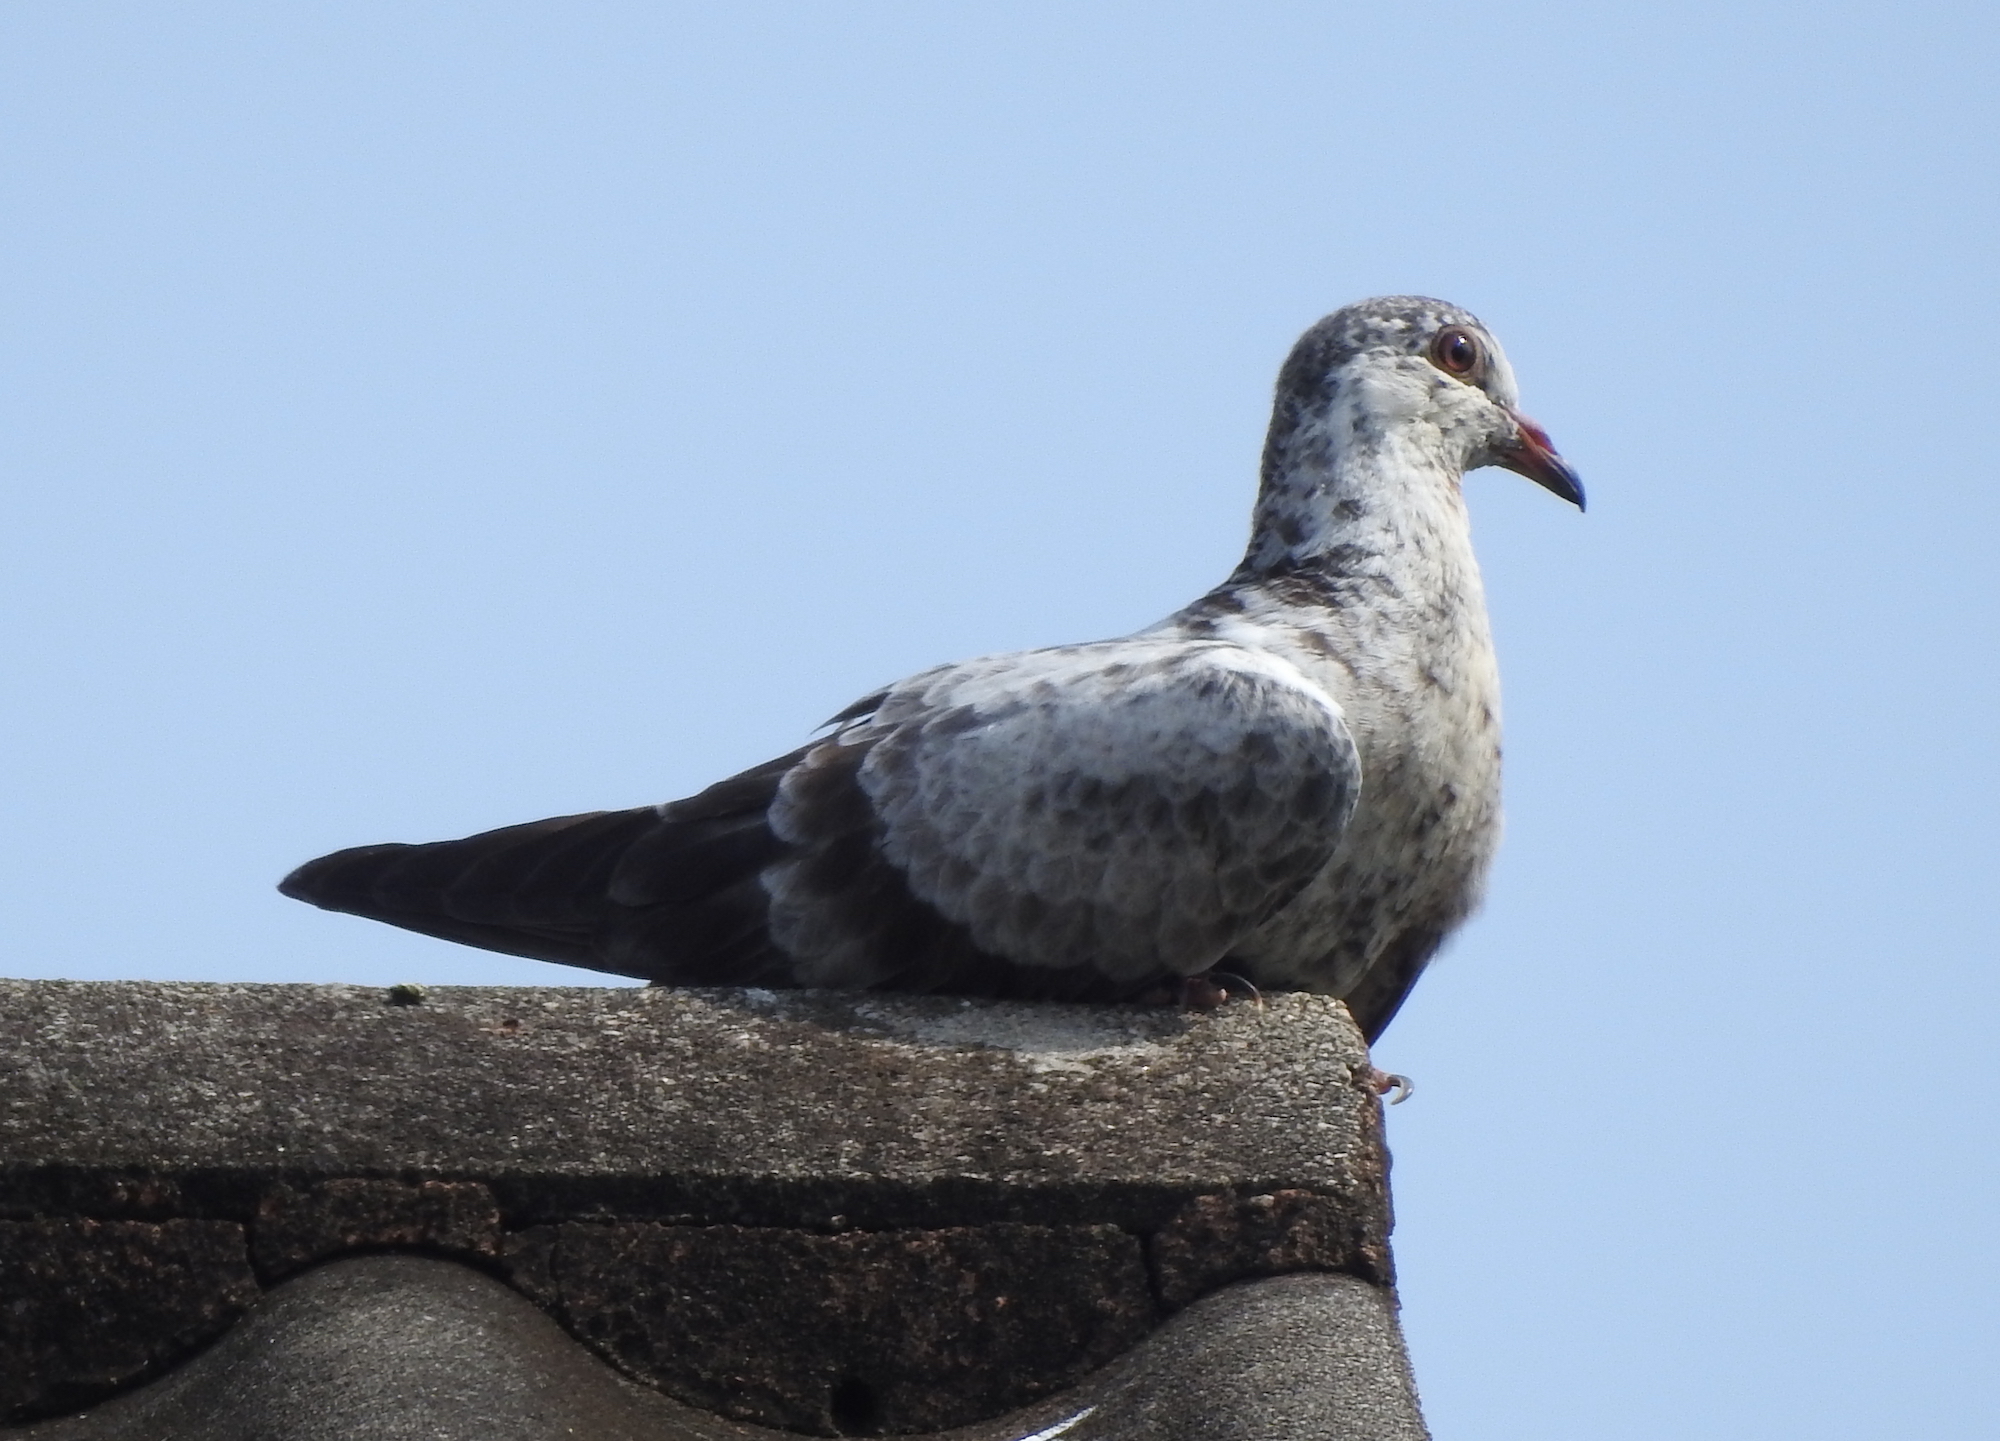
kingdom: Animalia
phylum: Chordata
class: Aves
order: Columbiformes
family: Columbidae
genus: Columba
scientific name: Columba livia
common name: Rock pigeon
